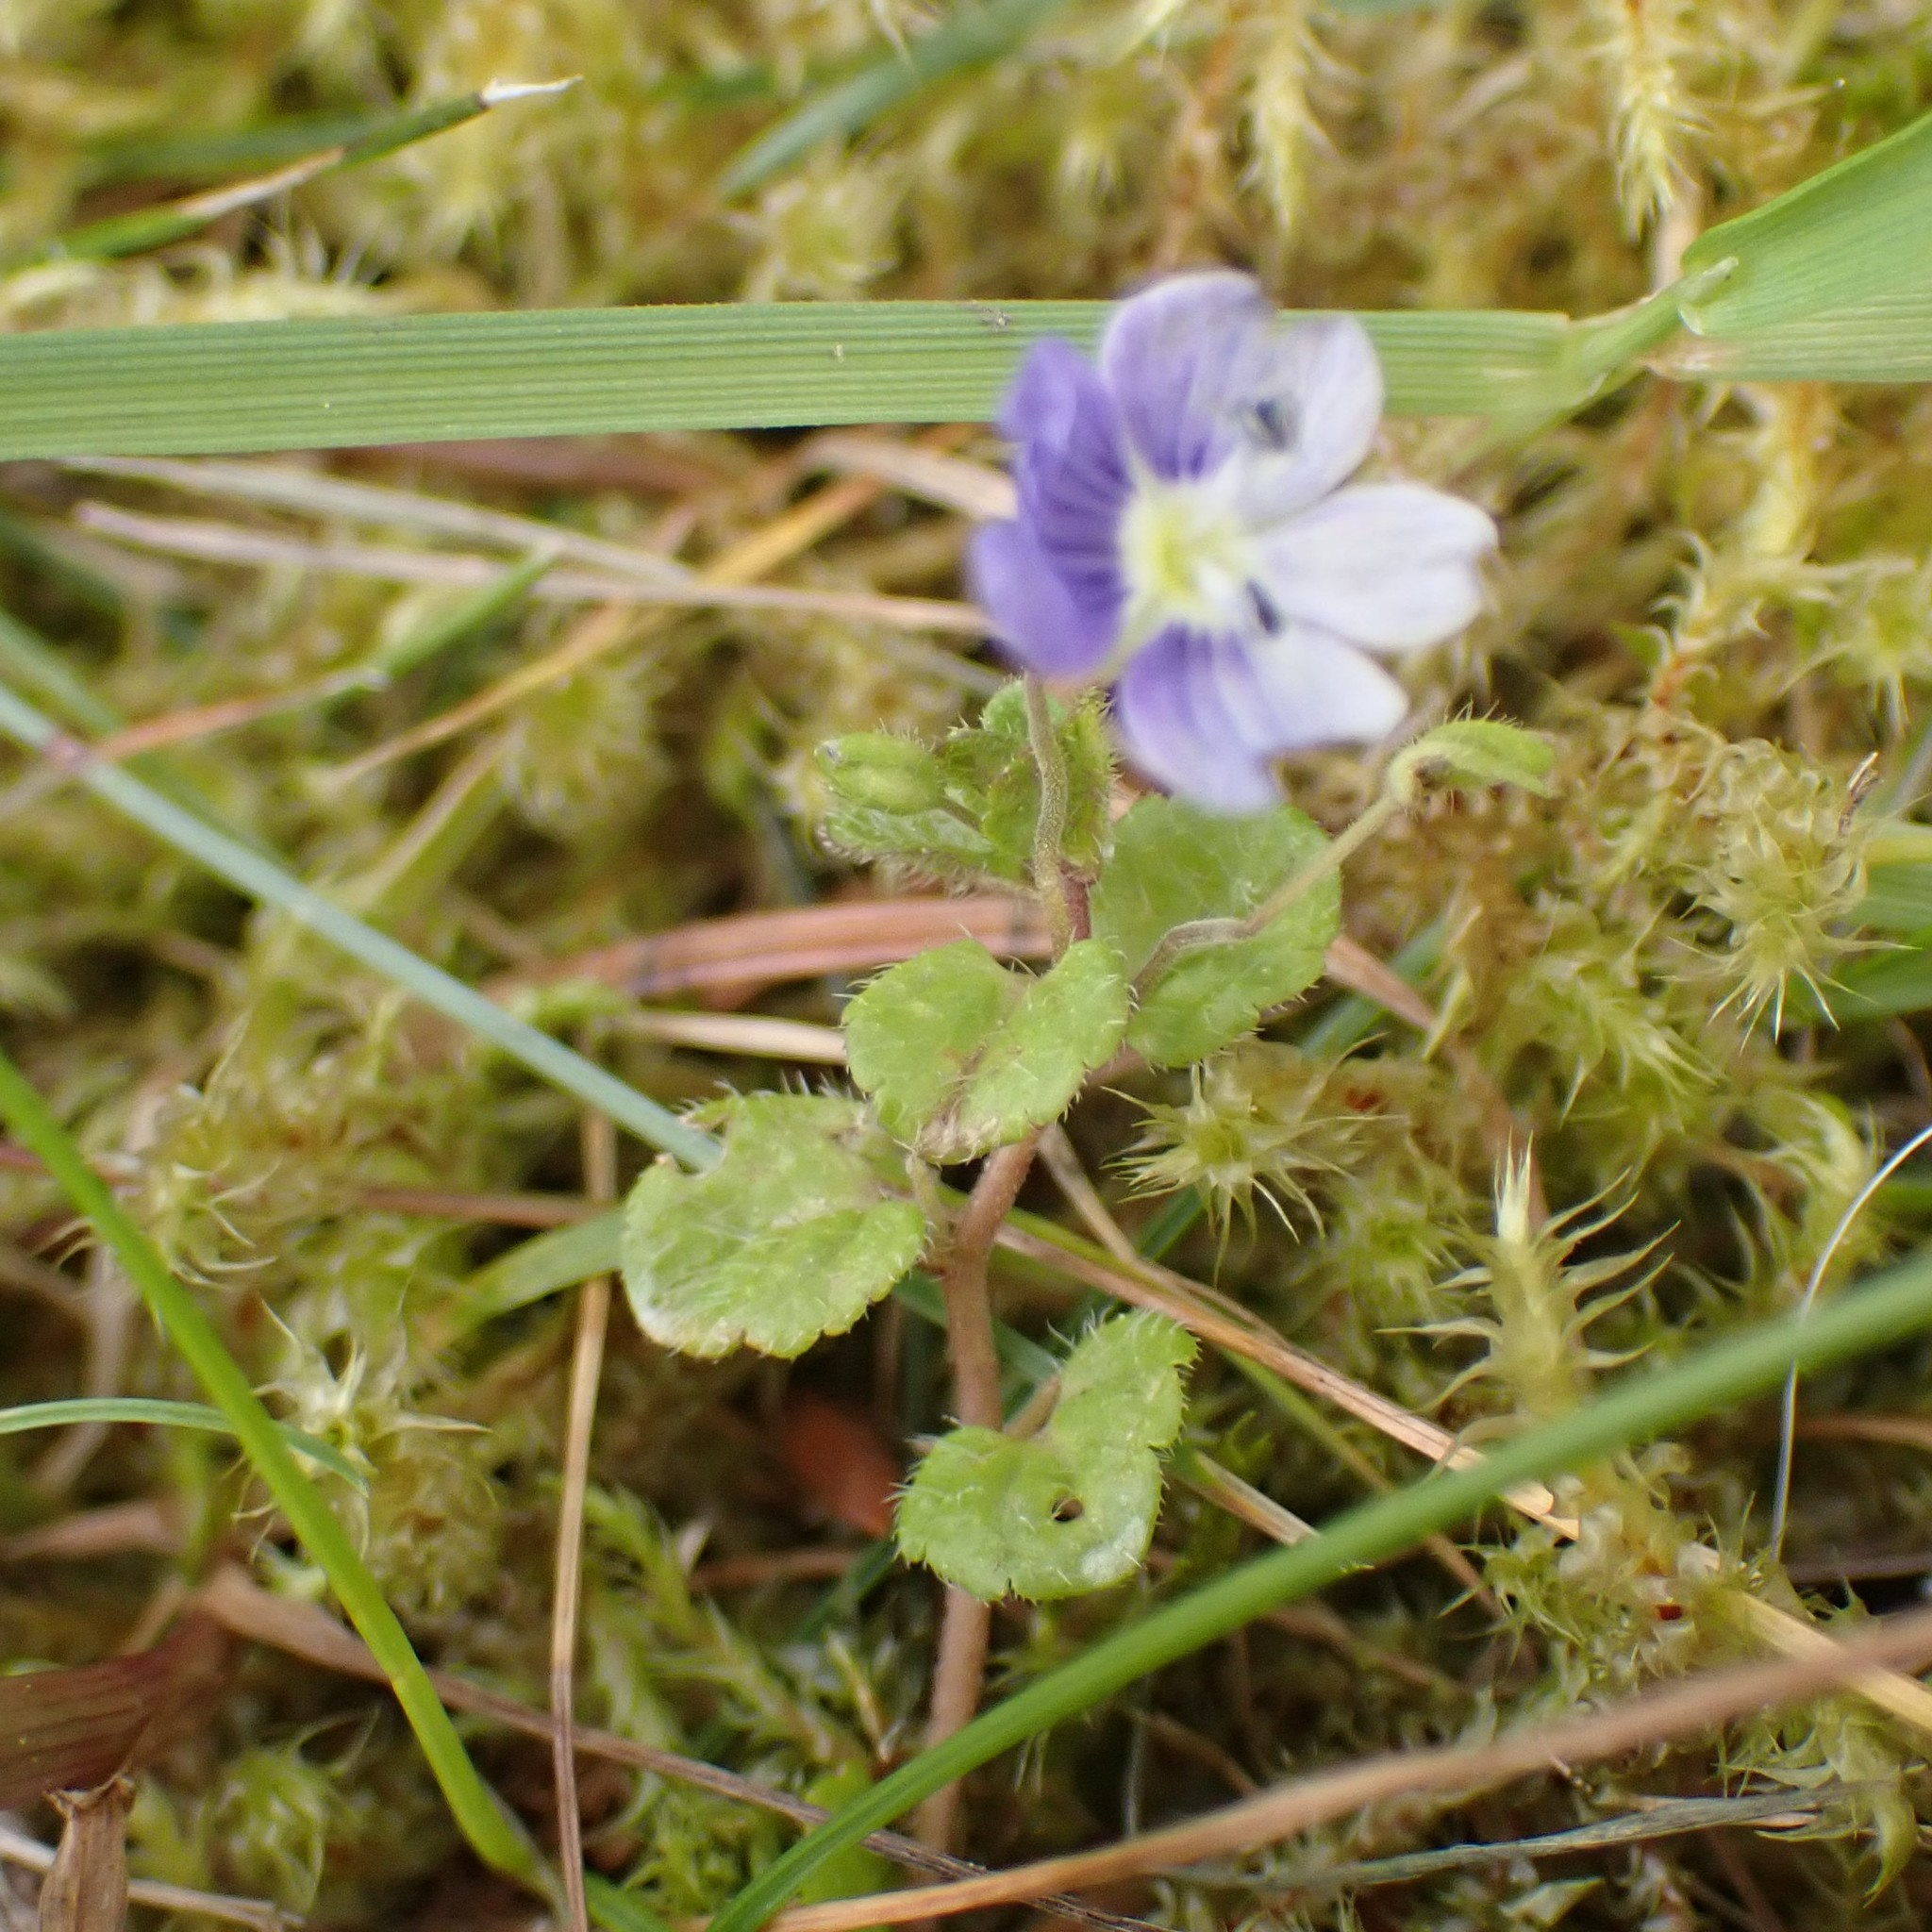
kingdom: Plantae
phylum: Tracheophyta
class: Magnoliopsida
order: Lamiales
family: Plantaginaceae
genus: Veronica
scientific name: Veronica filiformis
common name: Slender speedwell
